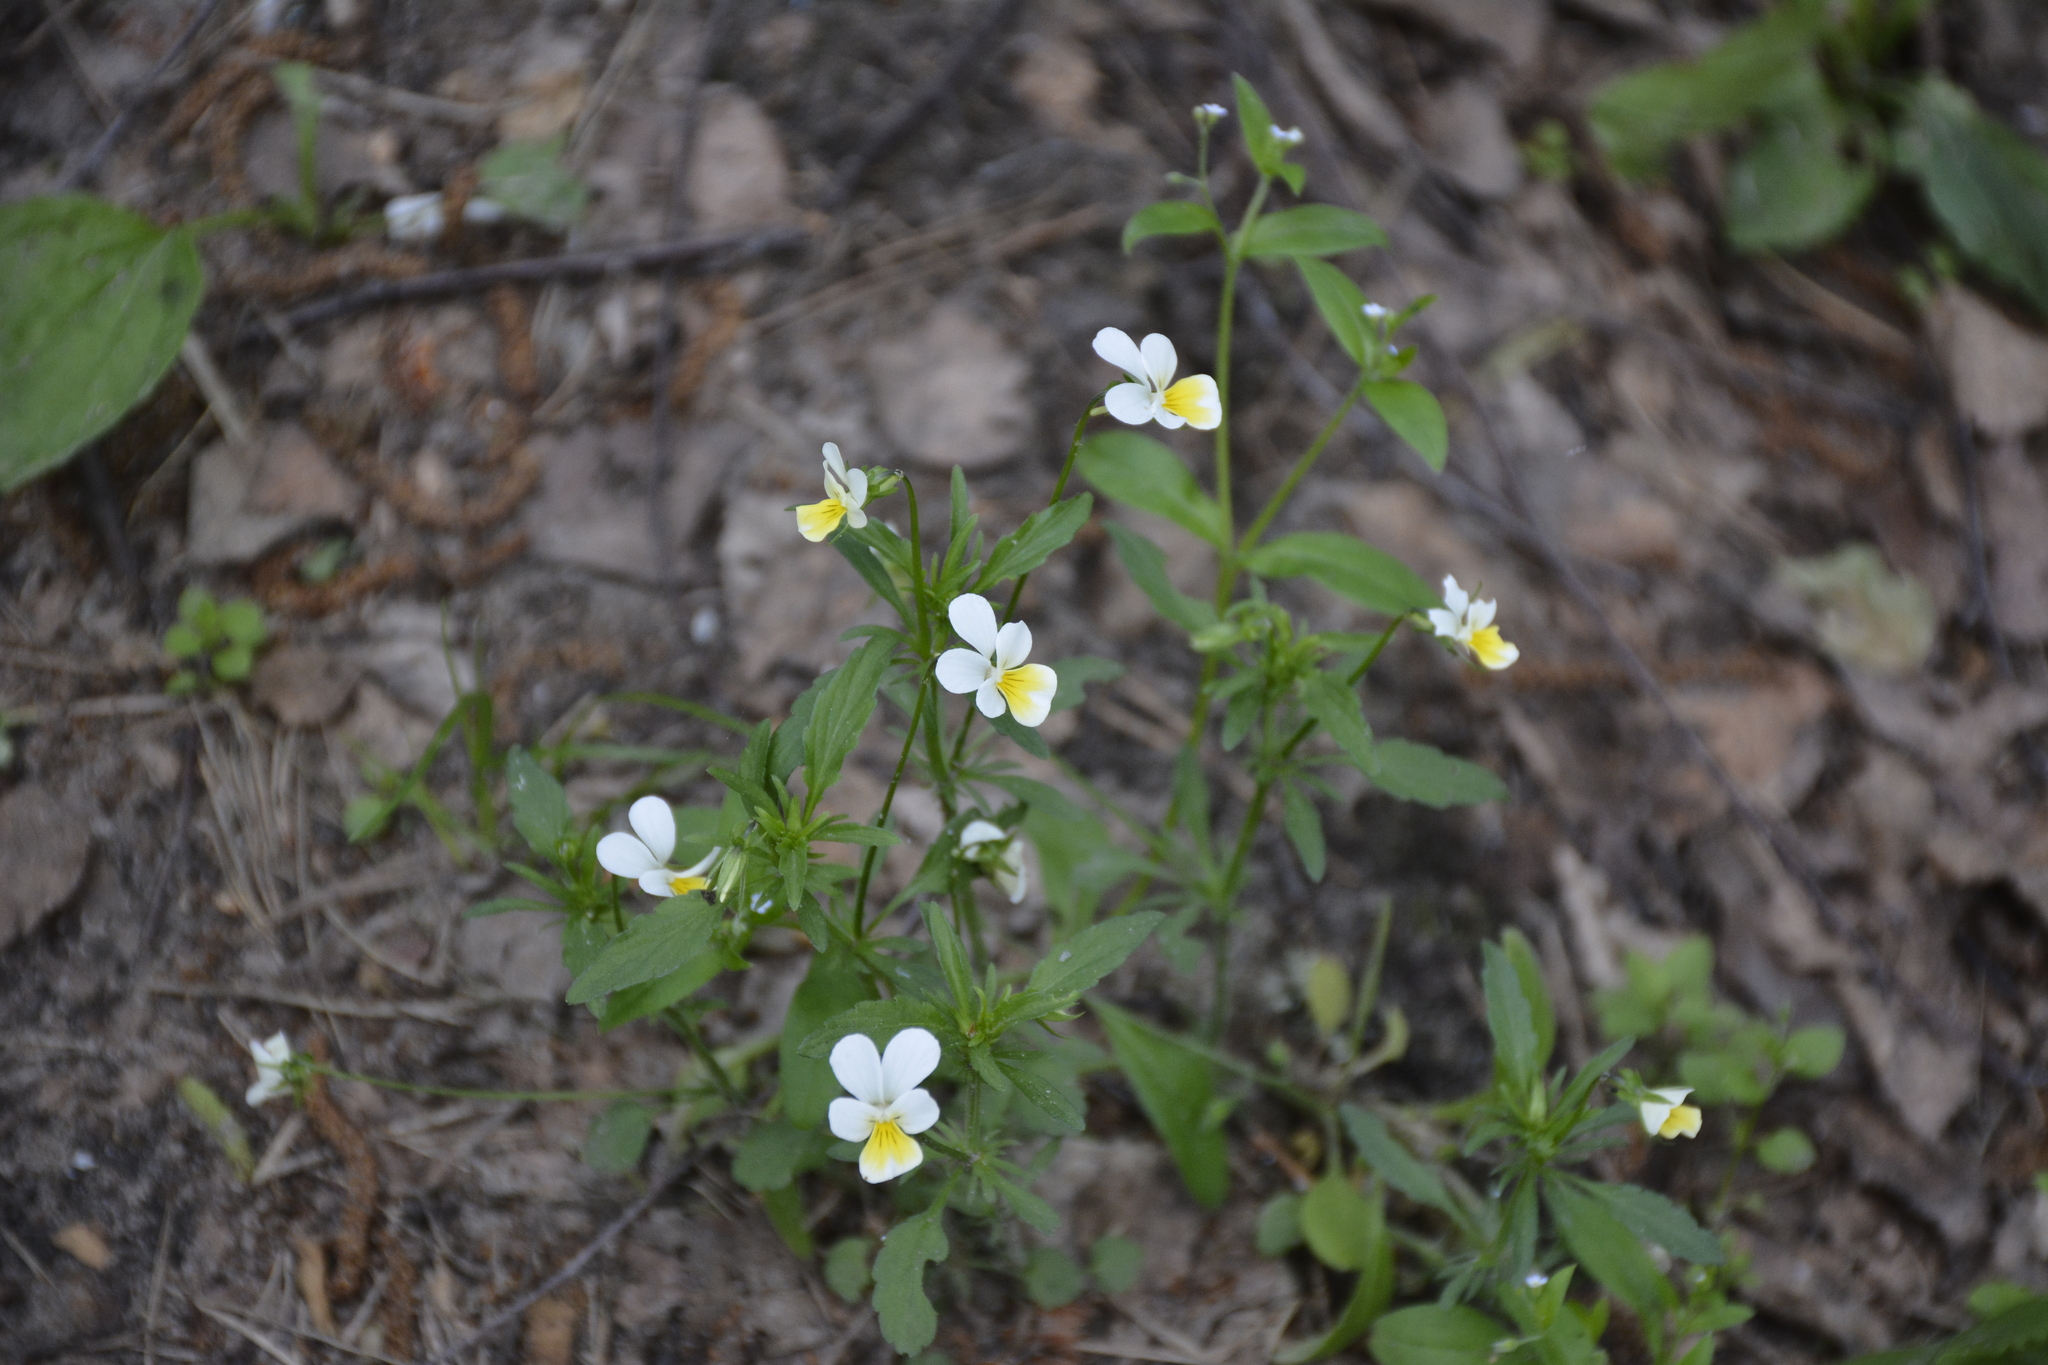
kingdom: Plantae
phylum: Tracheophyta
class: Magnoliopsida
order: Malpighiales
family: Violaceae
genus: Viola
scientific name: Viola arvensis
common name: Field pansy
